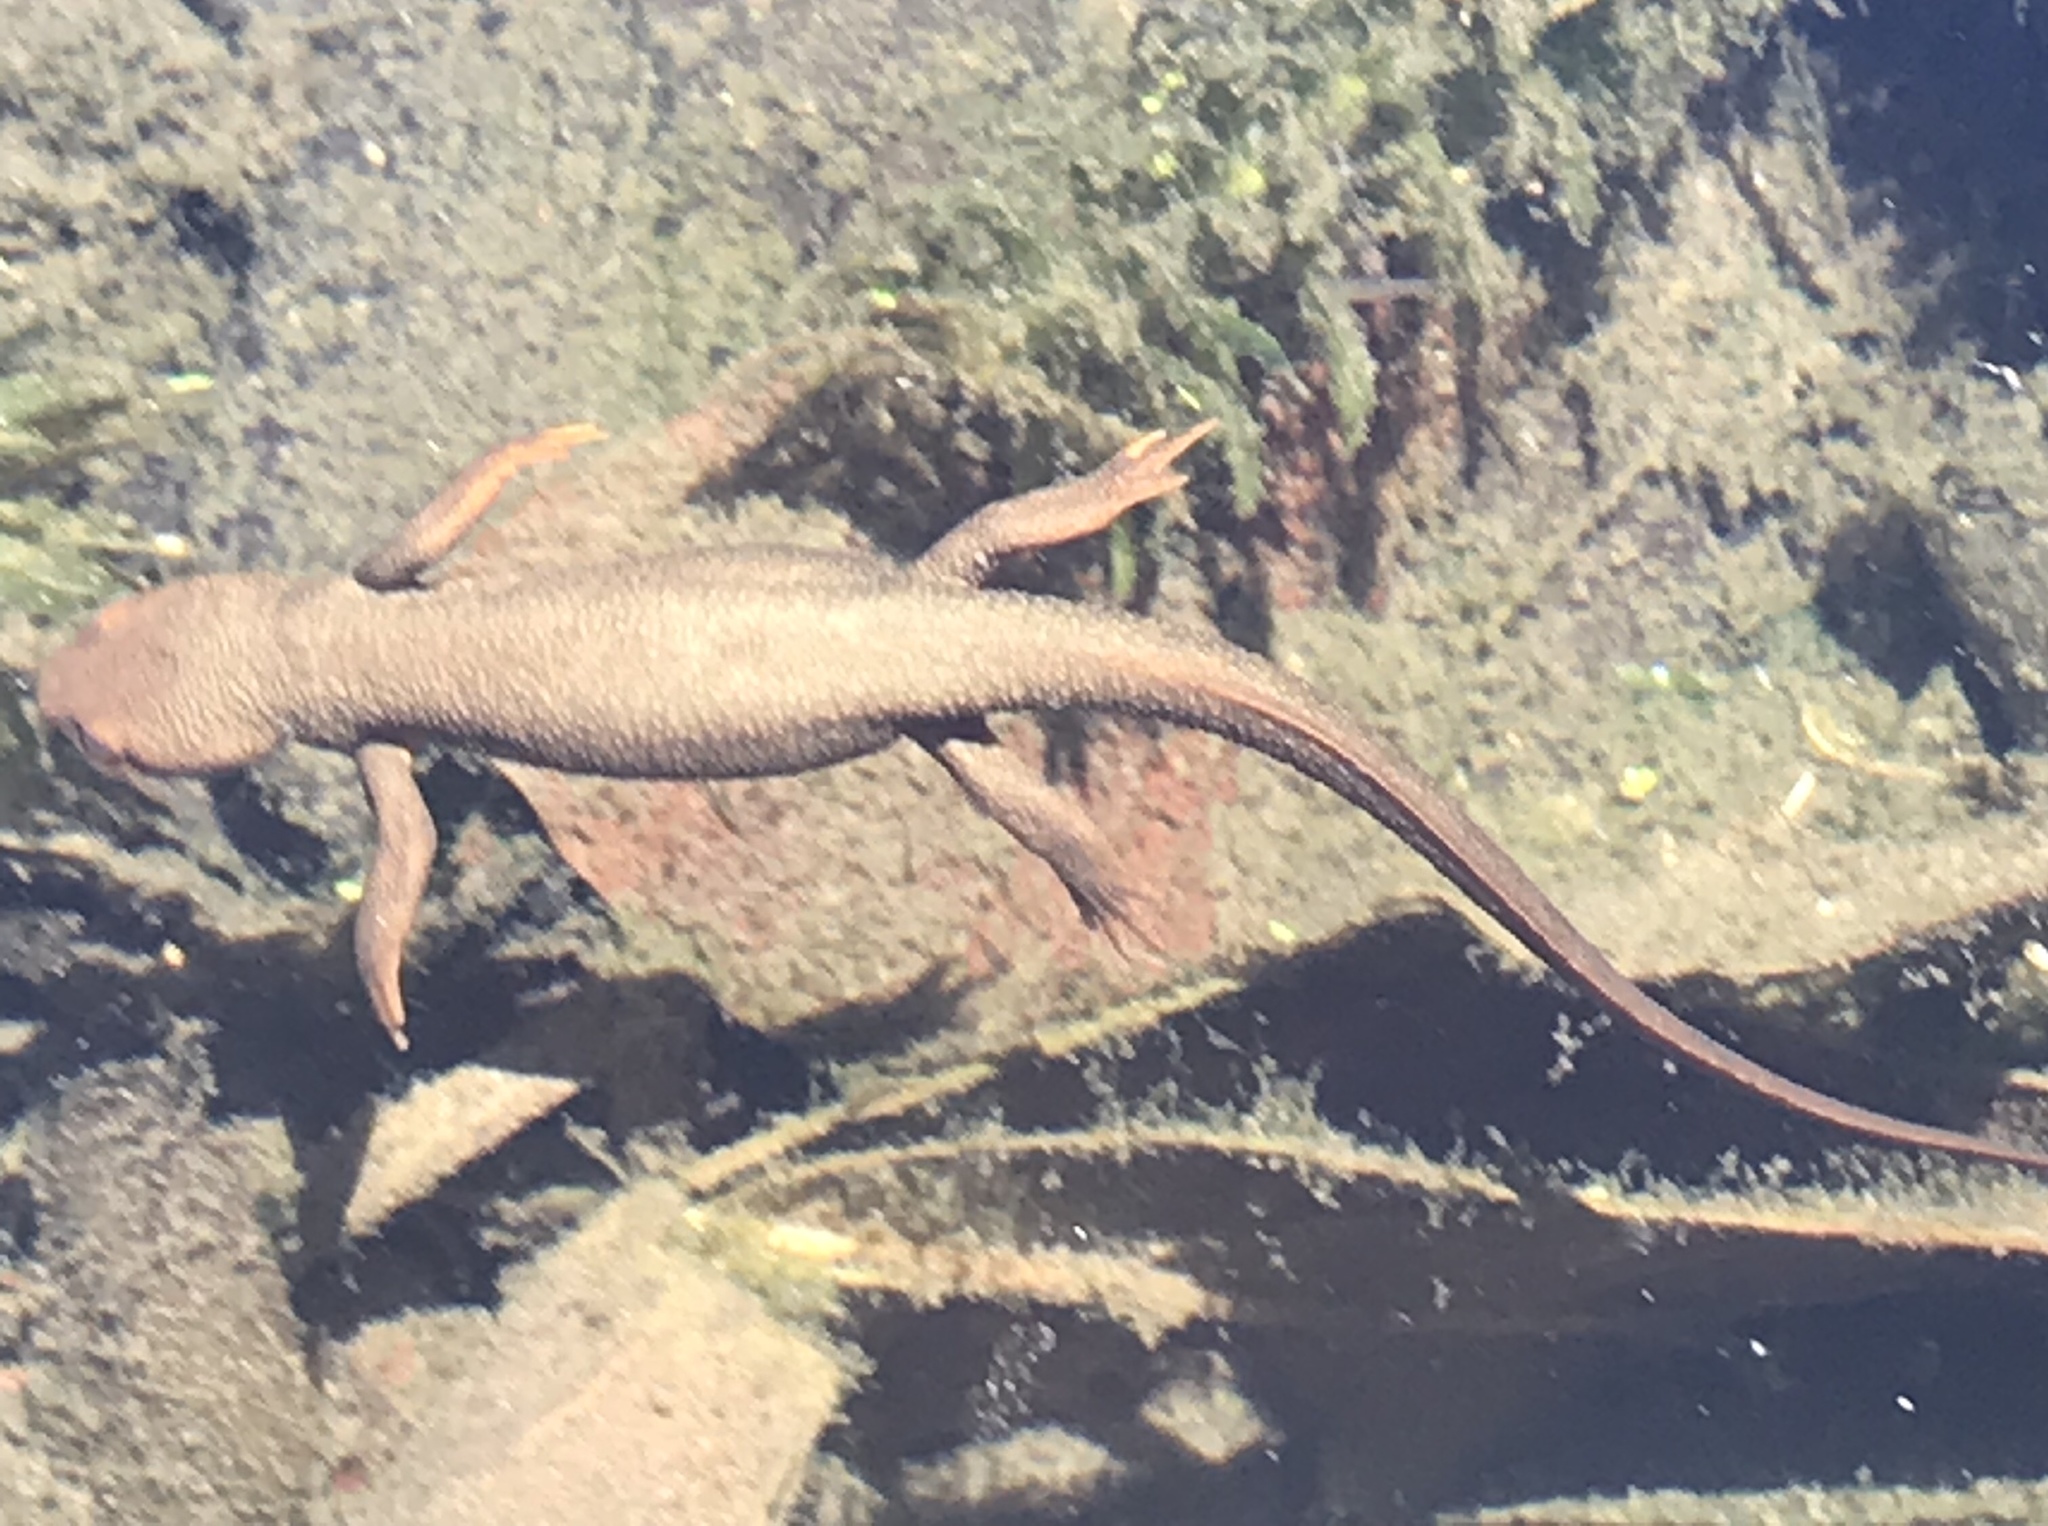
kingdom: Animalia
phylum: Chordata
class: Amphibia
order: Caudata
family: Salamandridae
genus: Taricha
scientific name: Taricha torosa
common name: California newt
